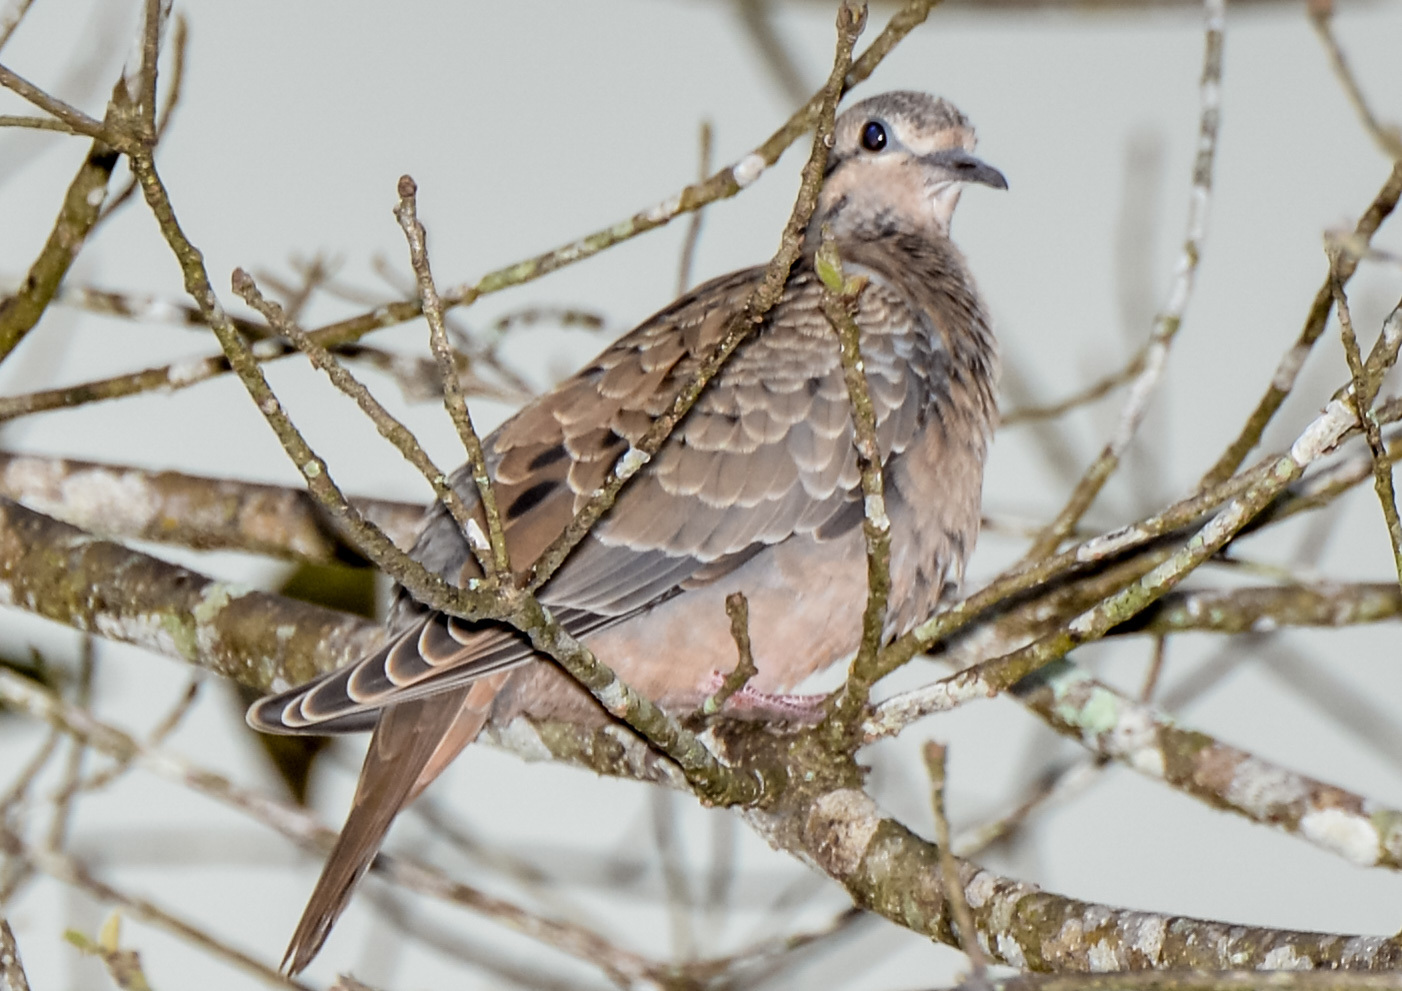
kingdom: Animalia
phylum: Chordata
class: Aves
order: Columbiformes
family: Columbidae
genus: Zenaida
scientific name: Zenaida auriculata
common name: Eared dove
